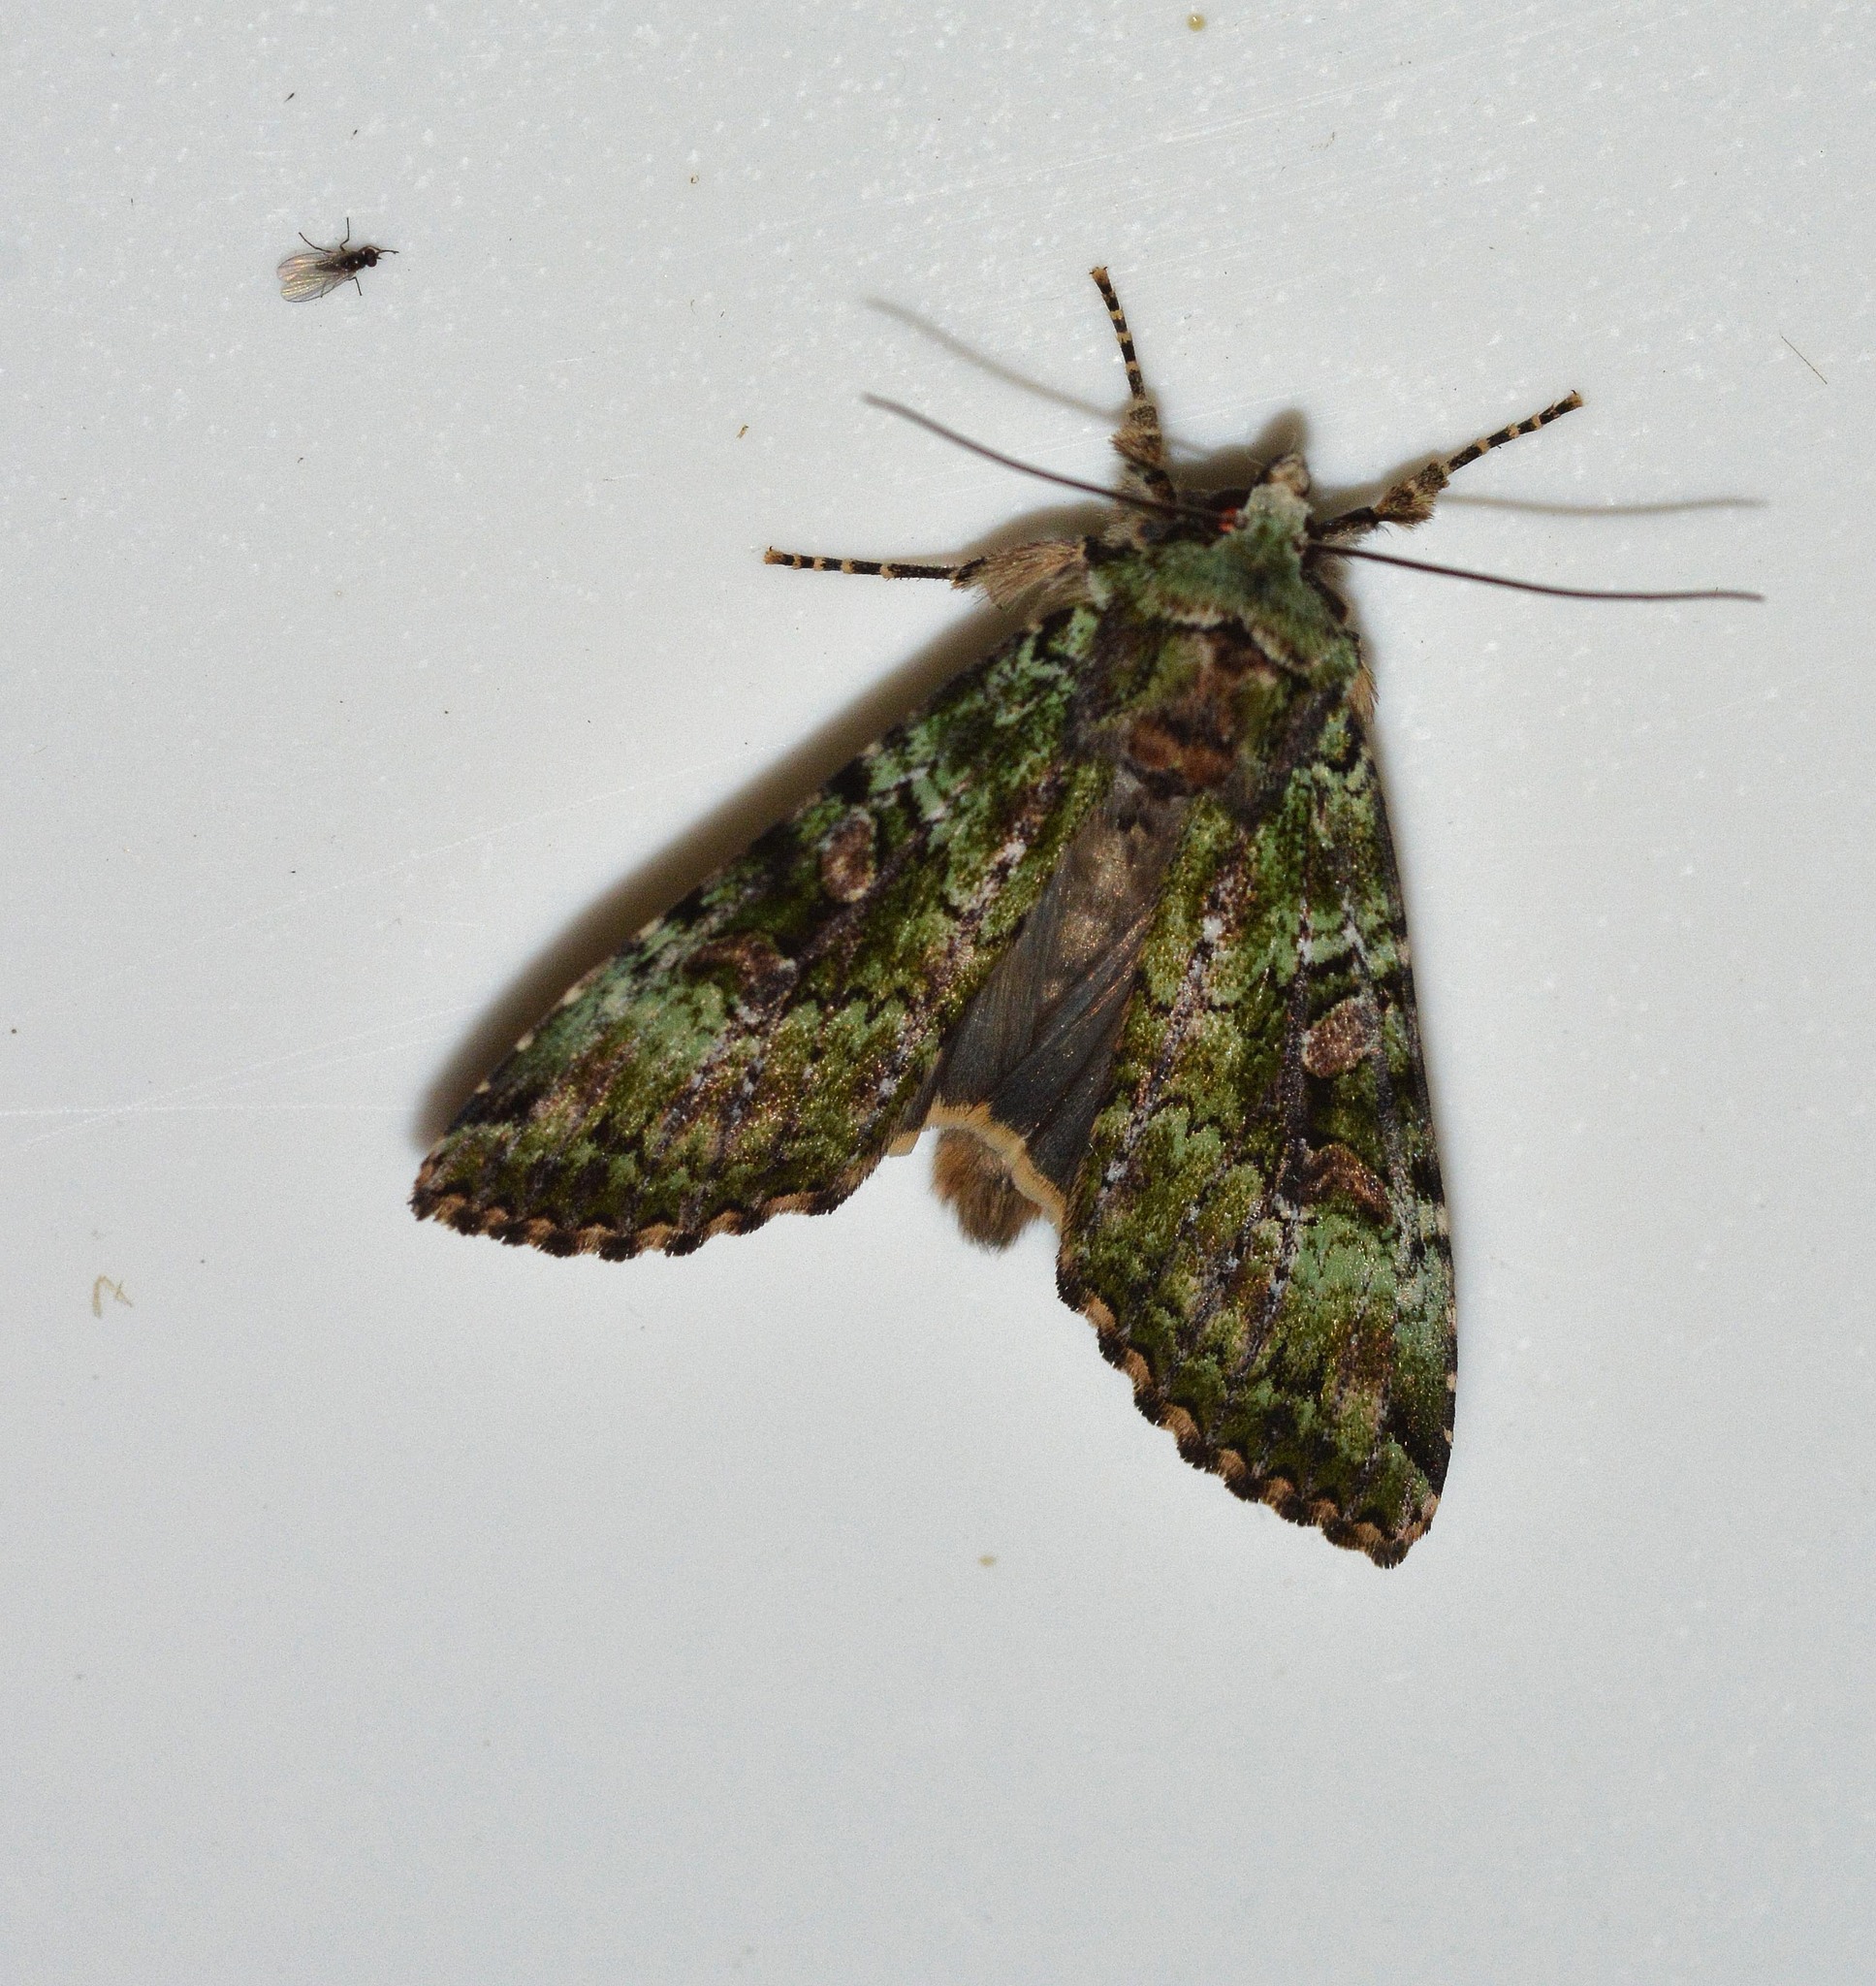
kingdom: Animalia
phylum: Arthropoda
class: Insecta
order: Lepidoptera
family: Noctuidae
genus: Anaplectoides
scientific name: Anaplectoides prasina
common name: Green arches
